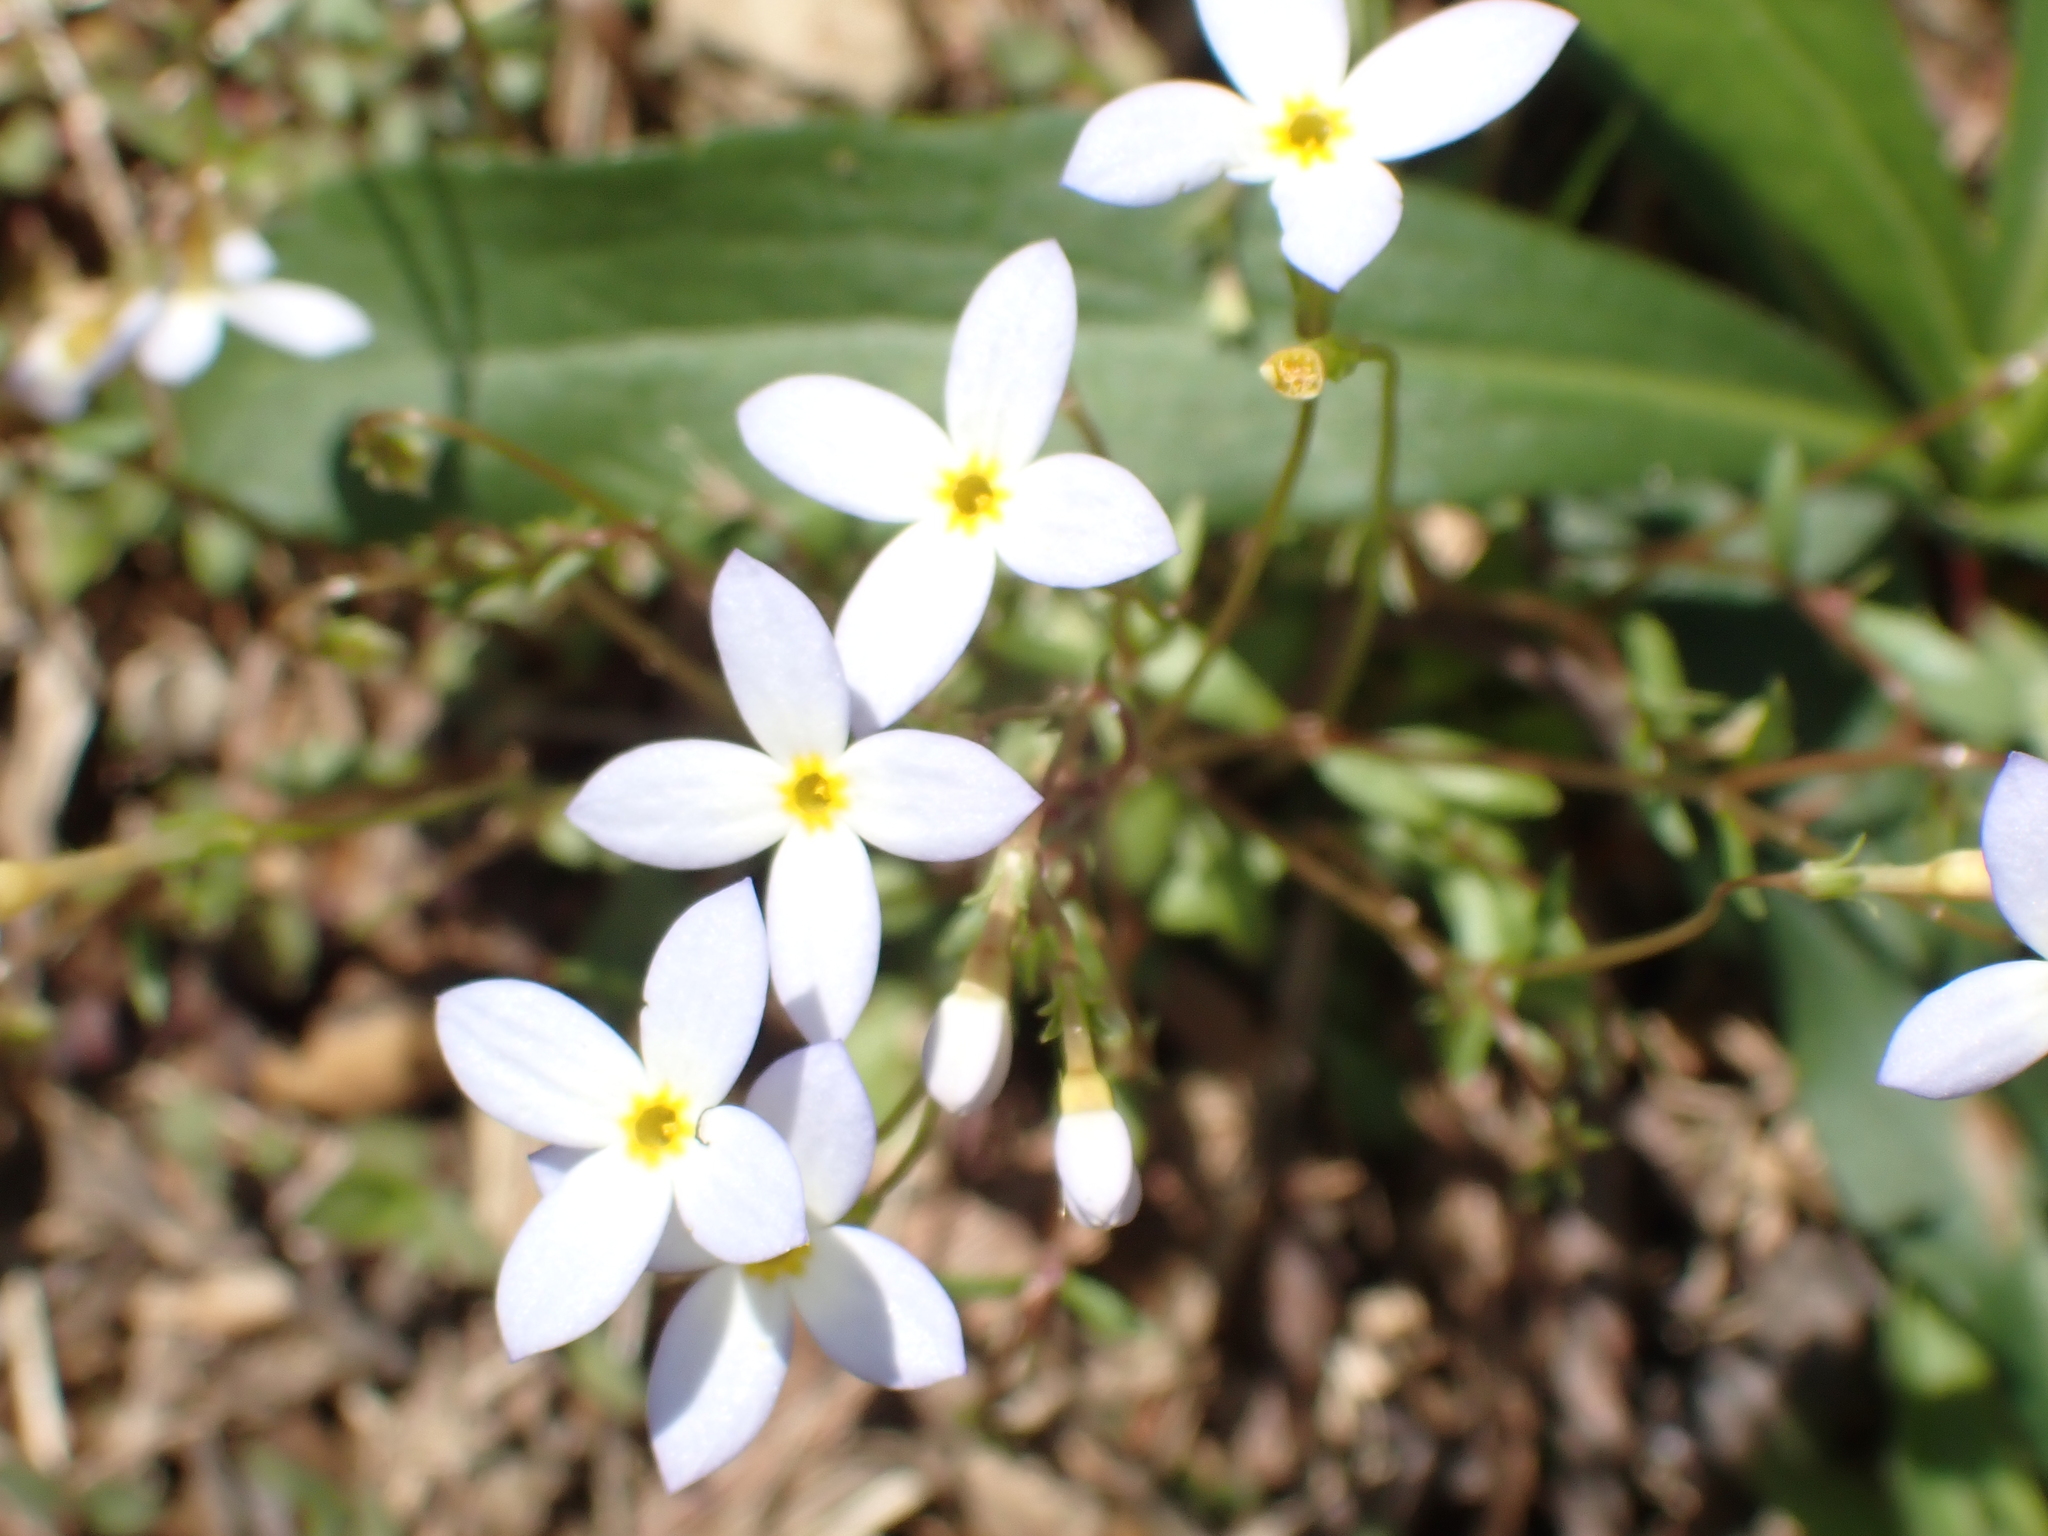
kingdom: Plantae
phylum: Tracheophyta
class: Magnoliopsida
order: Gentianales
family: Rubiaceae
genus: Houstonia
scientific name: Houstonia caerulea
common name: Bluets
